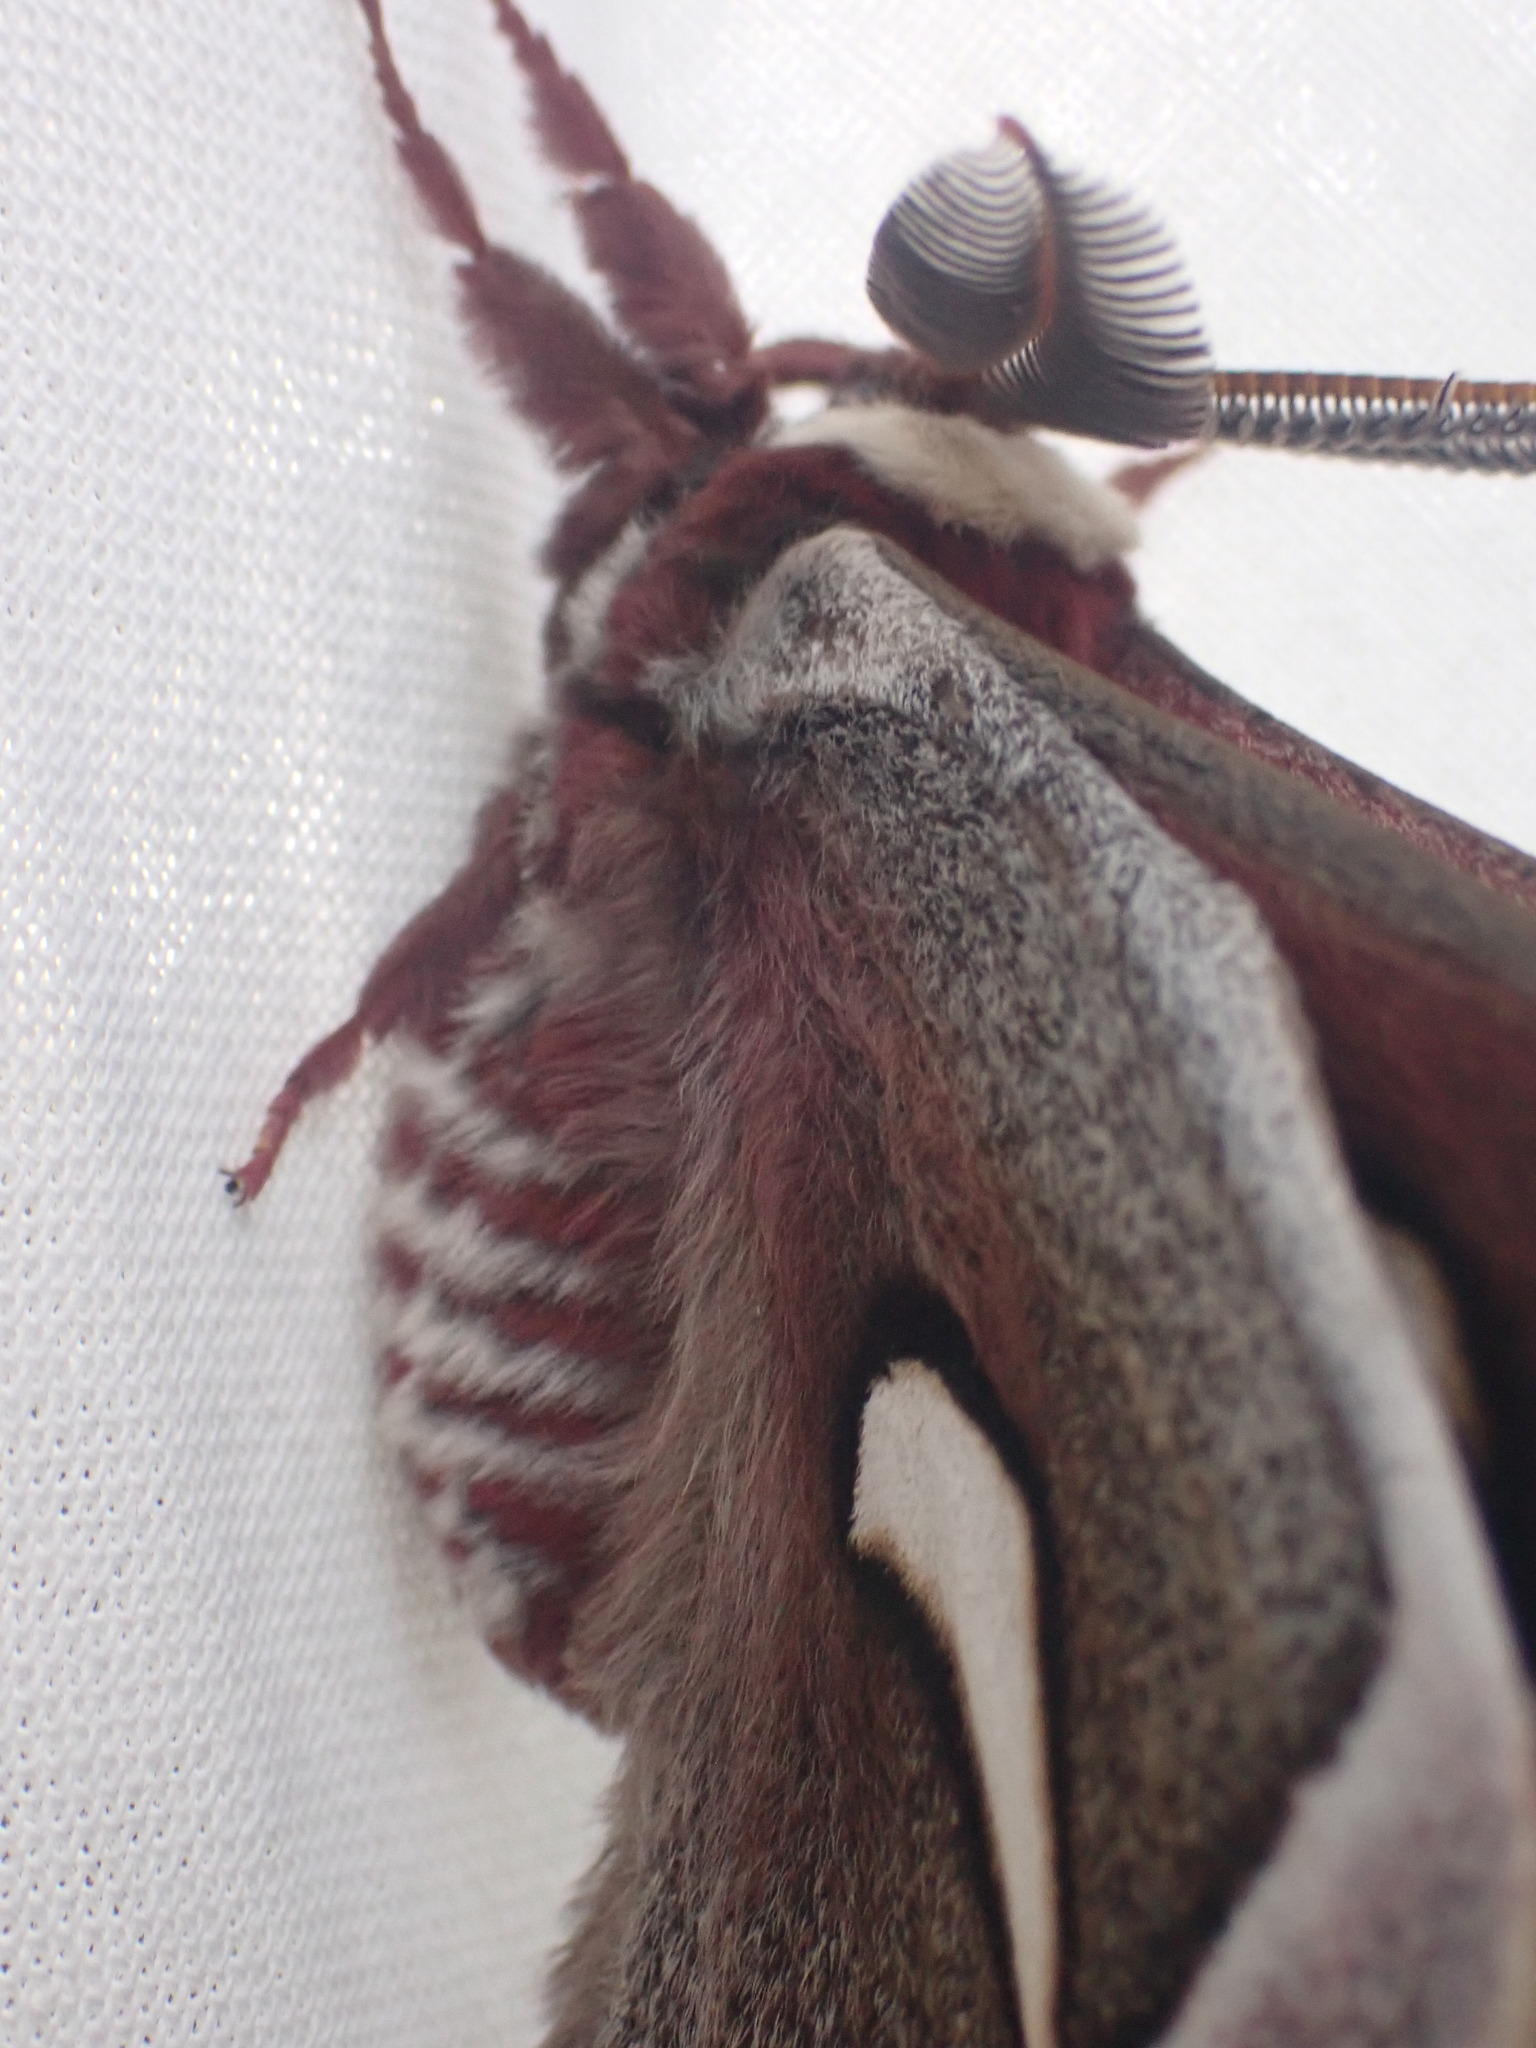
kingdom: Animalia
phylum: Arthropoda
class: Insecta
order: Lepidoptera
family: Saturniidae
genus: Hyalophora
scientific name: Hyalophora euryalus
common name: Ceanothus silkmoth
